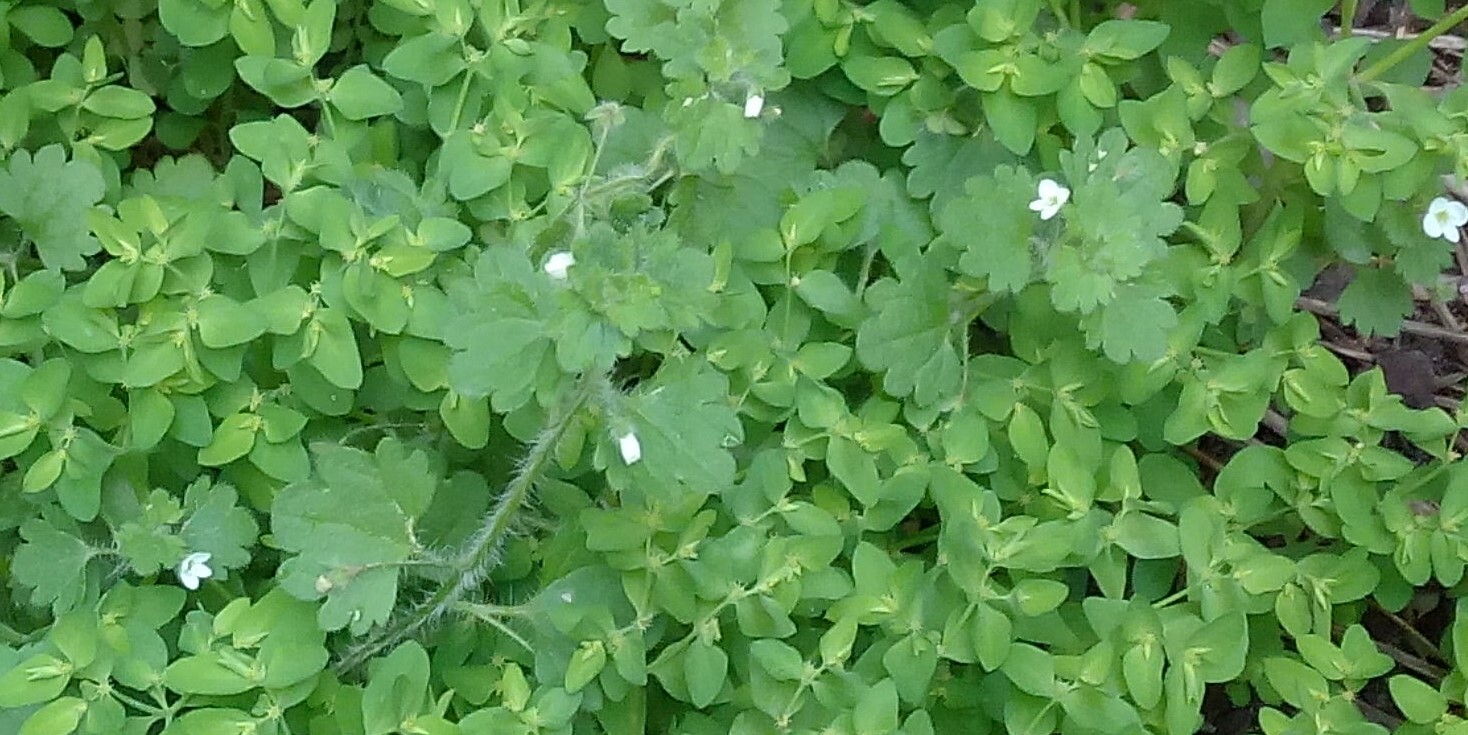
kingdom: Plantae
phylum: Tracheophyta
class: Magnoliopsida
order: Lamiales
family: Plantaginaceae
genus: Veronica
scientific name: Veronica cymbalaria
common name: Pale speedwell
